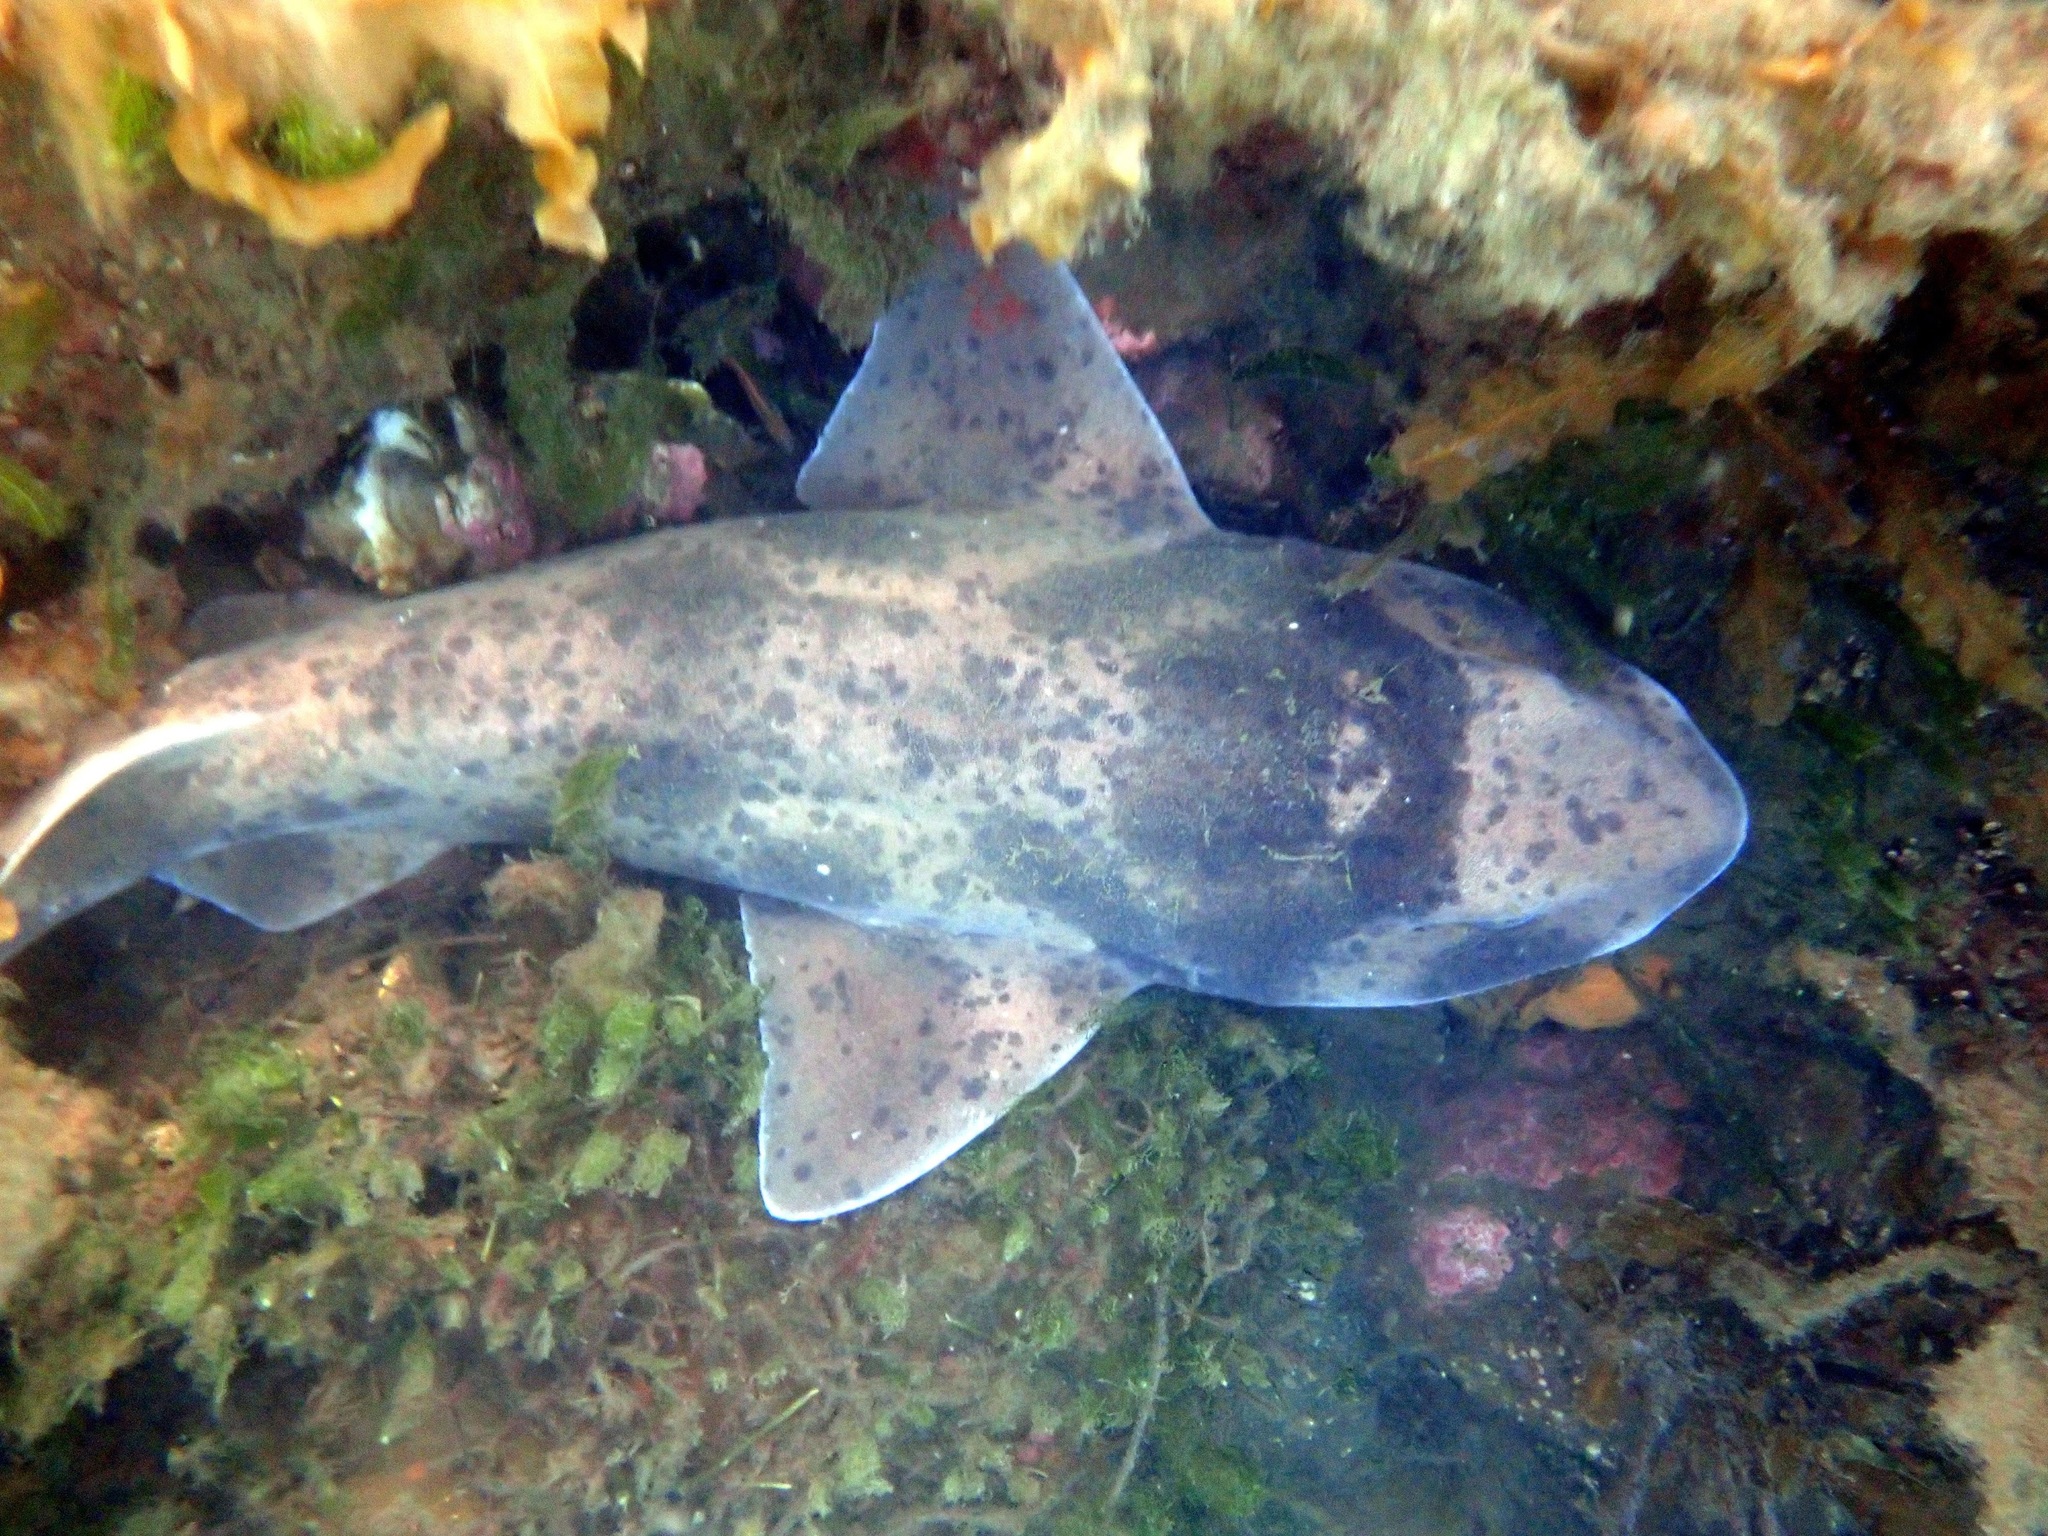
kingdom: Animalia
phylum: Chordata
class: Elasmobranchii
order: Carcharhiniformes
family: Scyliorhinidae
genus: Cephaloscyllium
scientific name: Cephaloscyllium laticeps
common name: Australian swellshark
